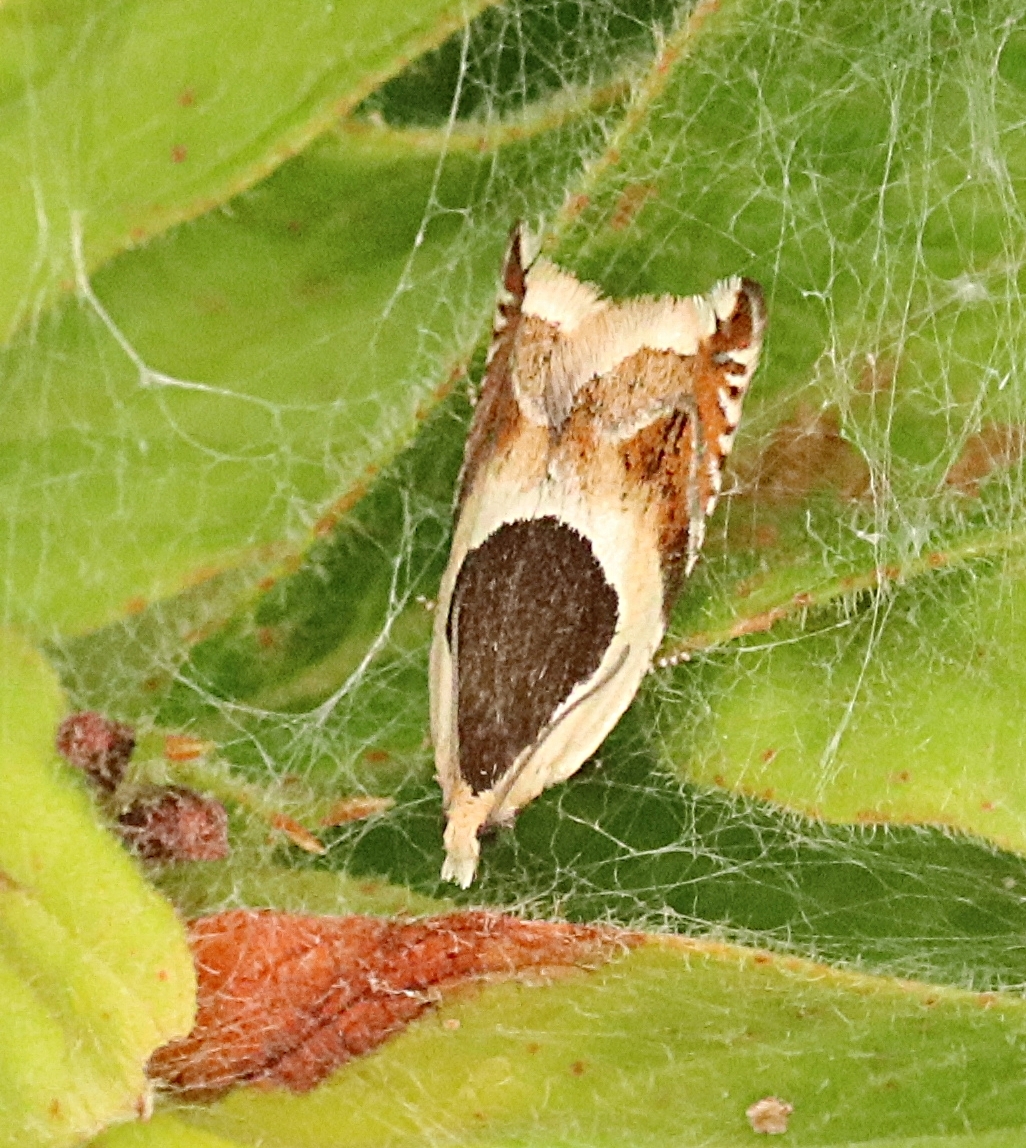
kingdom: Animalia
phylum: Arthropoda
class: Insecta
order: Lepidoptera
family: Tortricidae
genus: Ancylis
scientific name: Ancylis badiana
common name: Common roller
